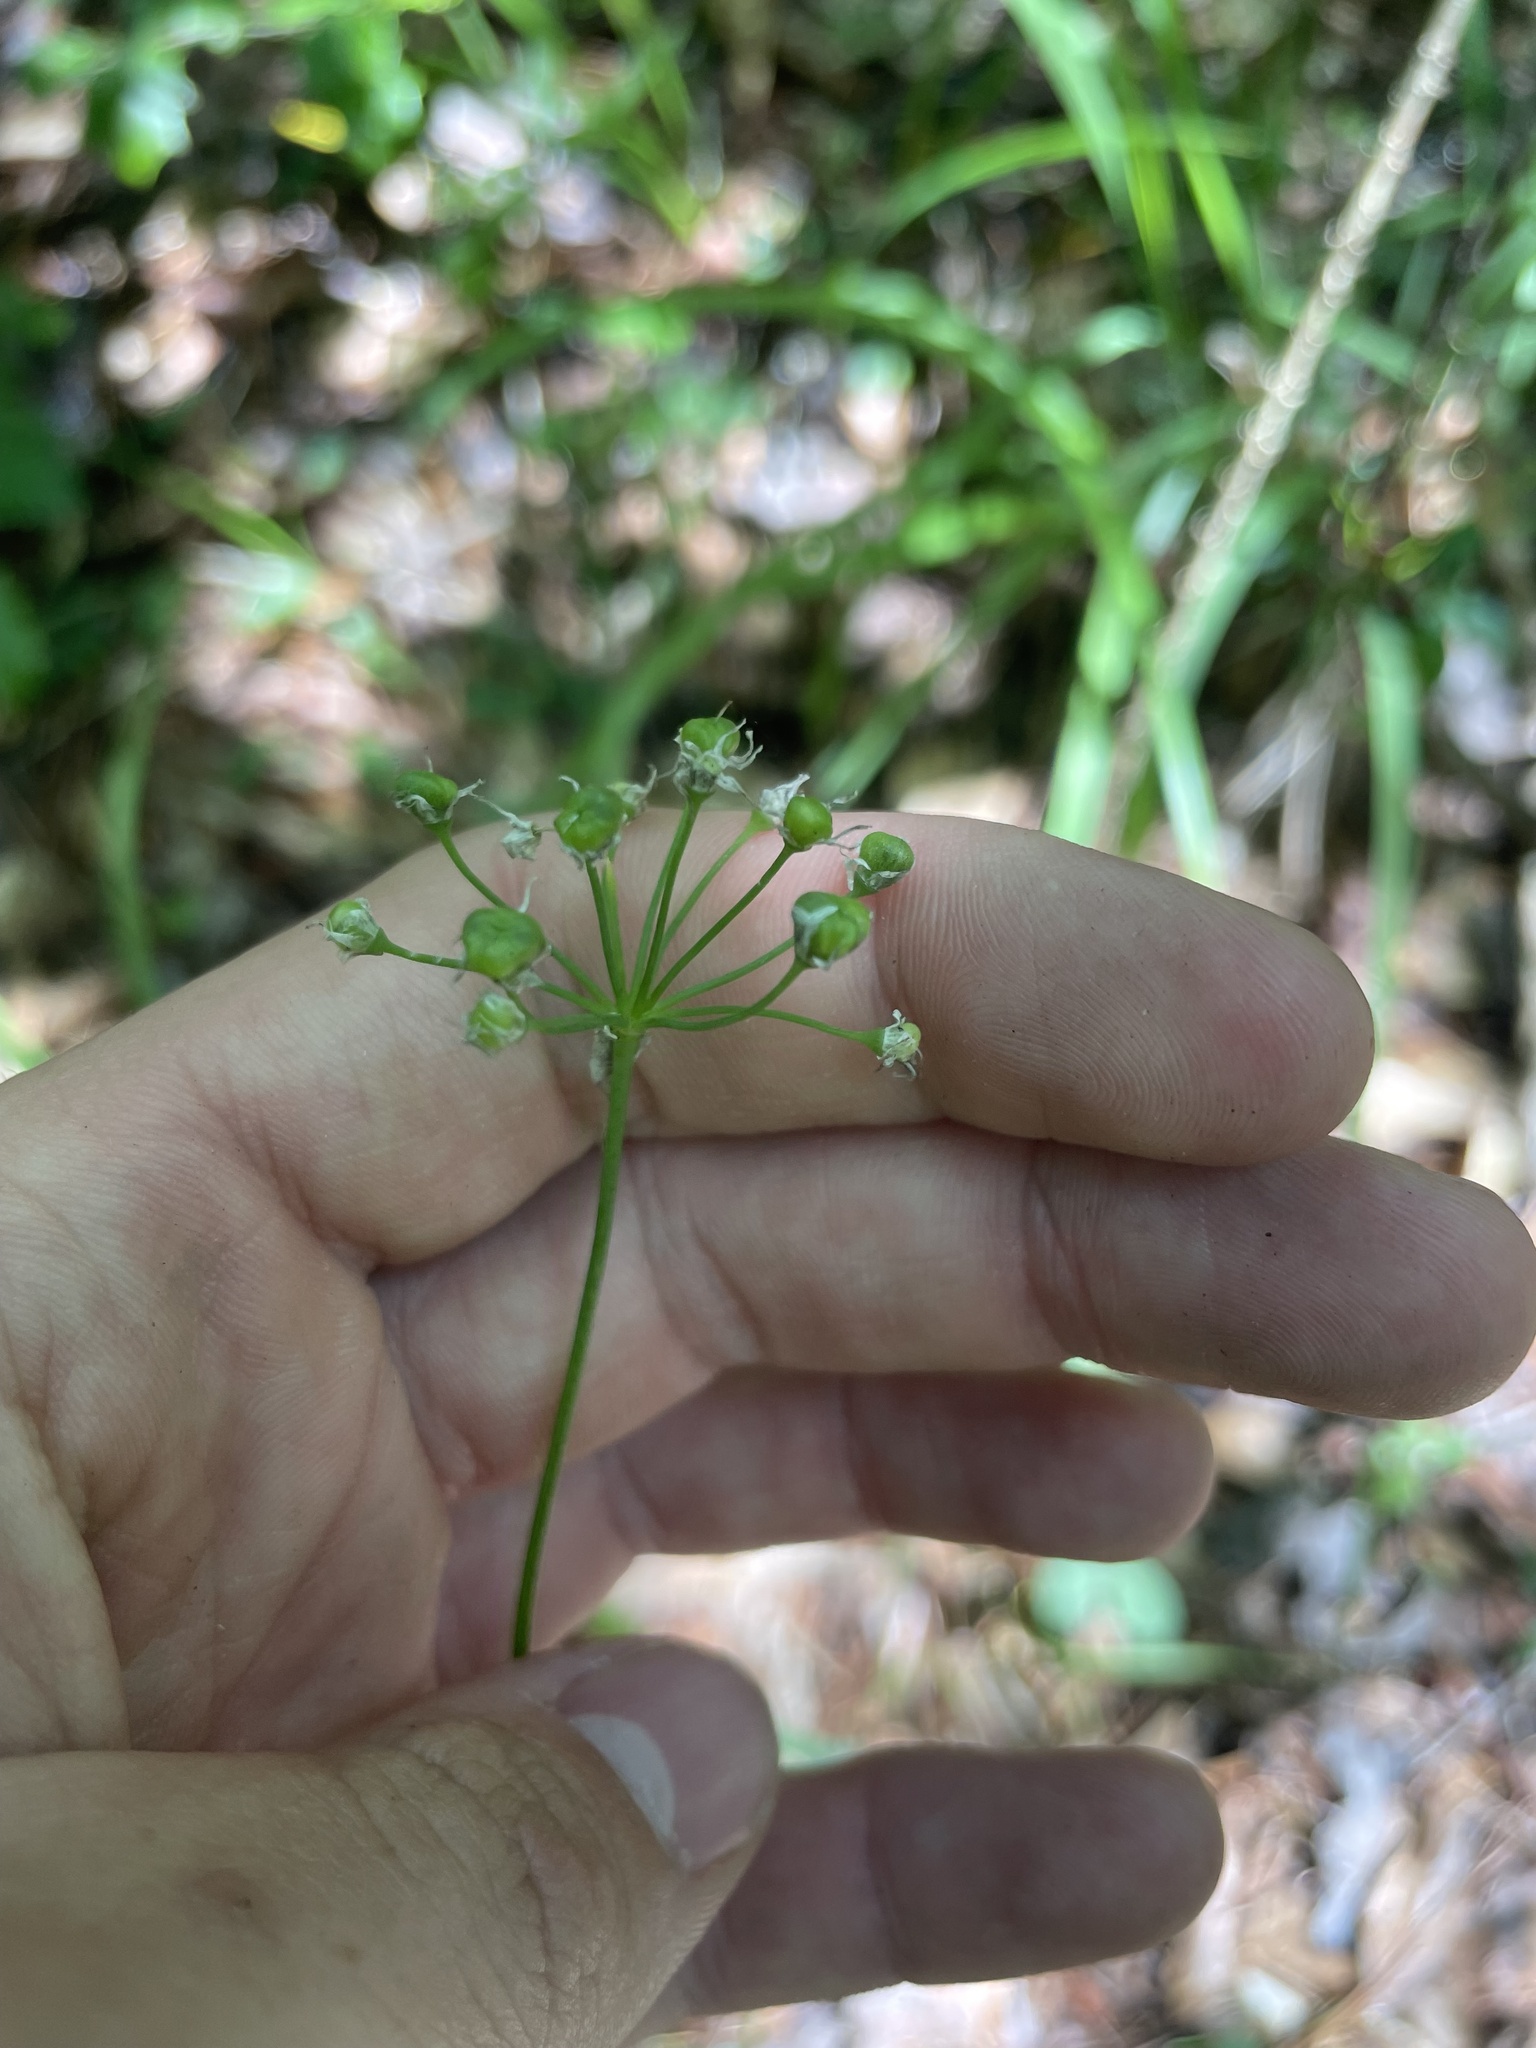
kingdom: Plantae
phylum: Tracheophyta
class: Liliopsida
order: Asparagales
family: Amaryllidaceae
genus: Allium
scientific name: Allium canadense
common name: Meadow garlic
